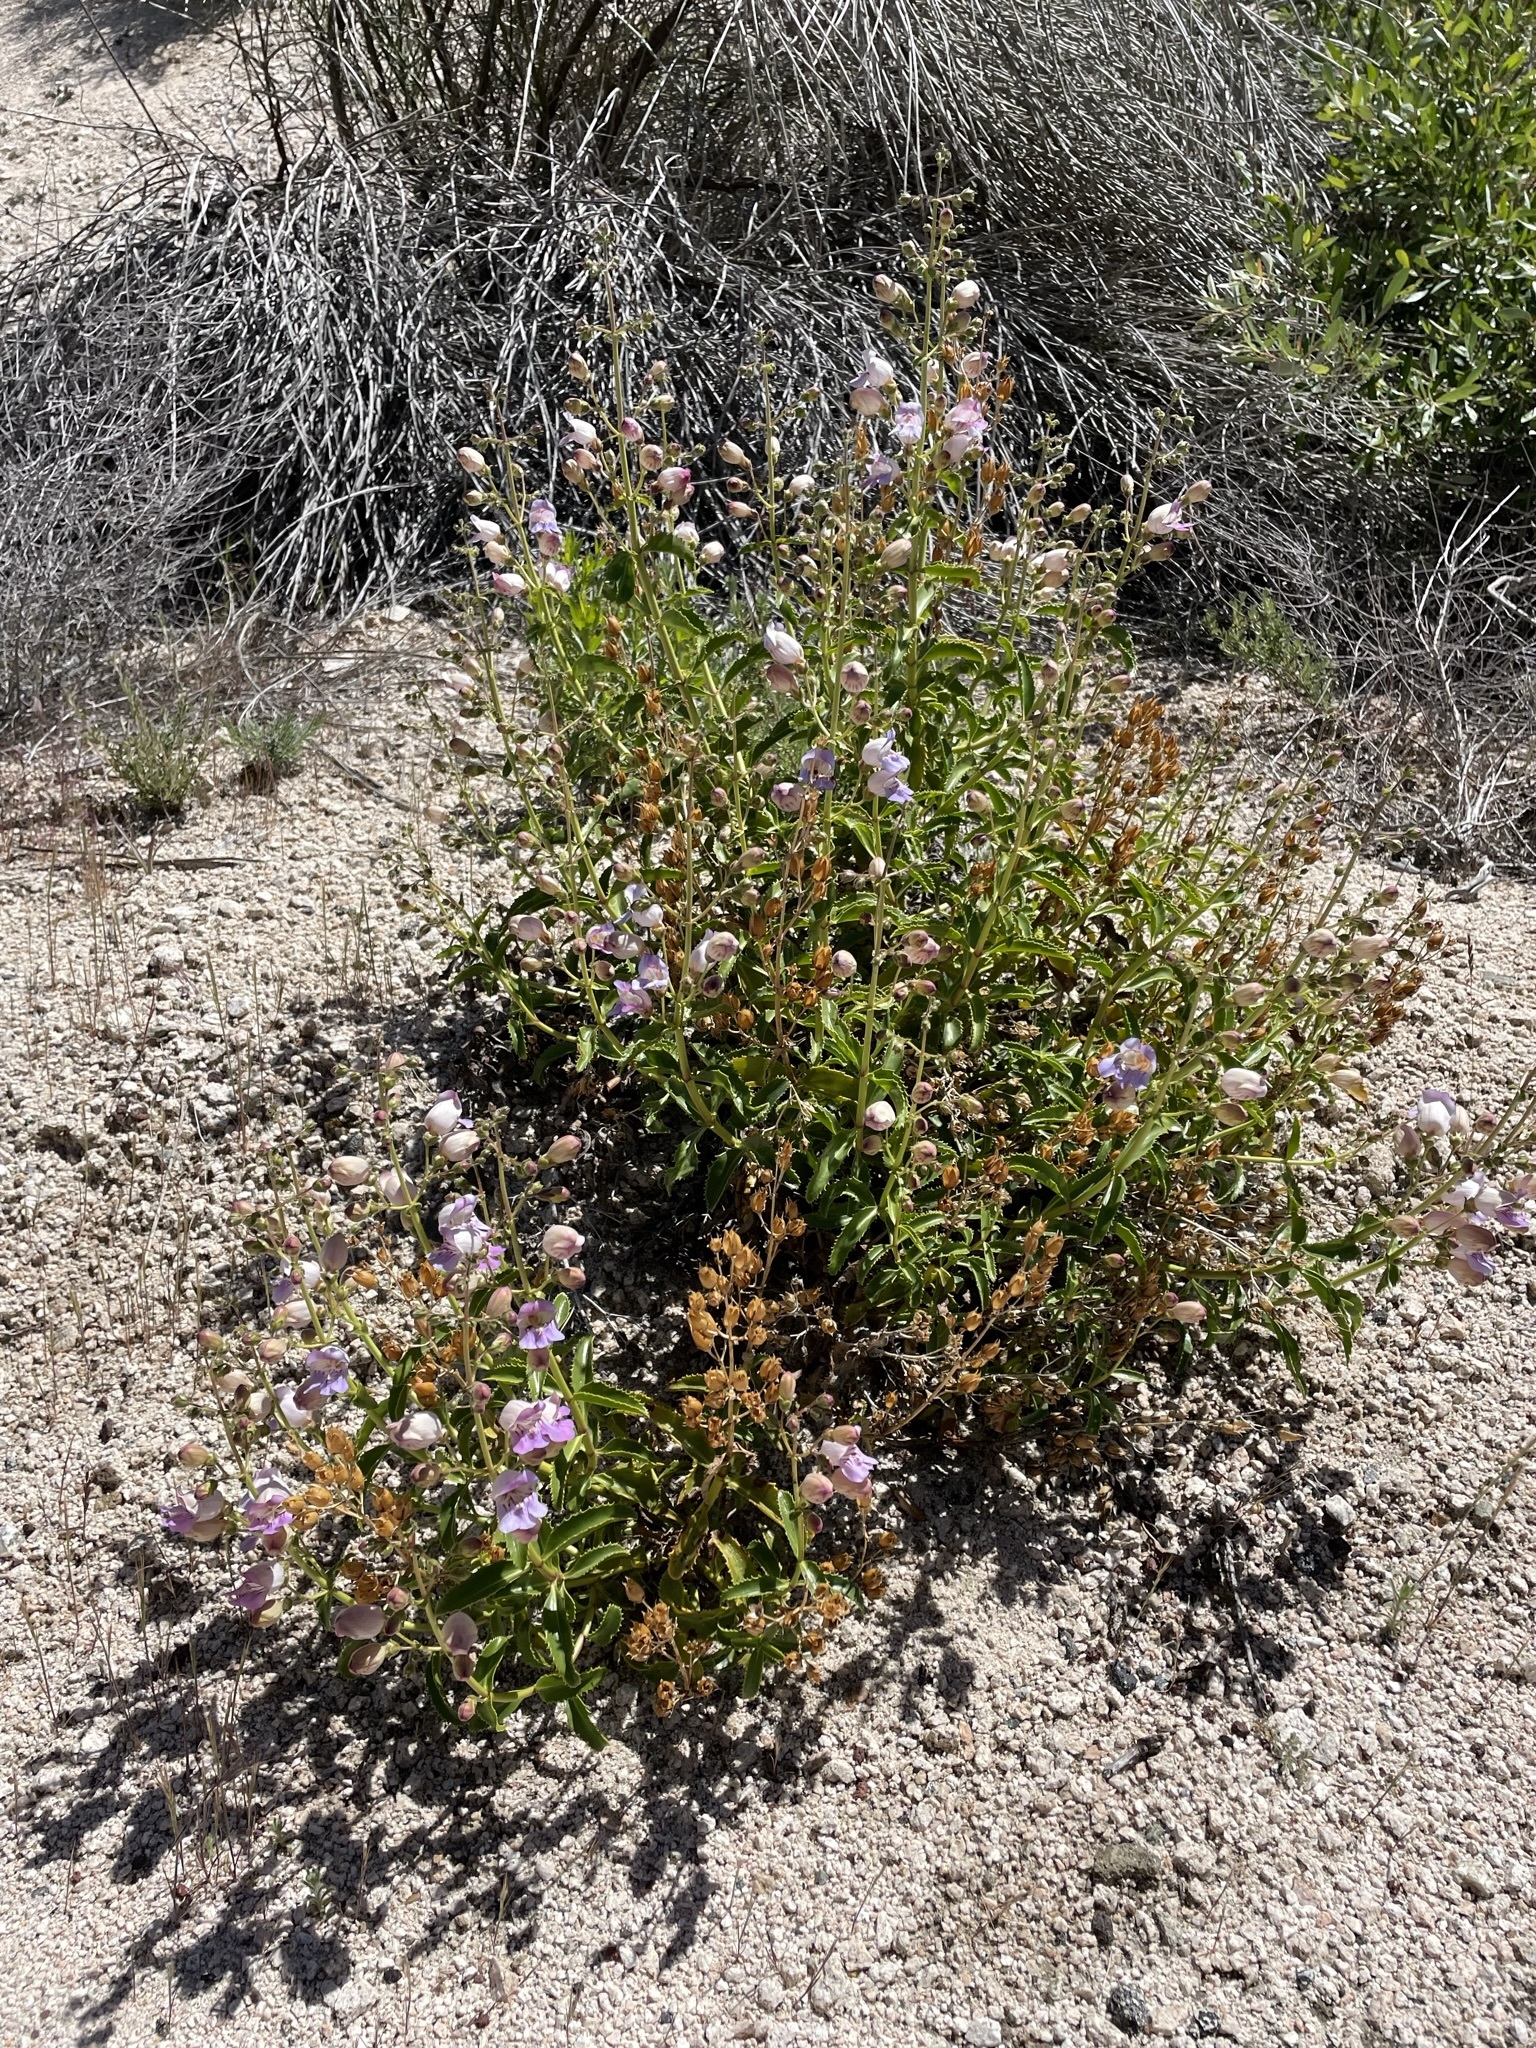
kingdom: Plantae
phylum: Tracheophyta
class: Magnoliopsida
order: Lamiales
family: Plantaginaceae
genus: Penstemon
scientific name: Penstemon grinnellii
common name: Grinnell's beardtongue
